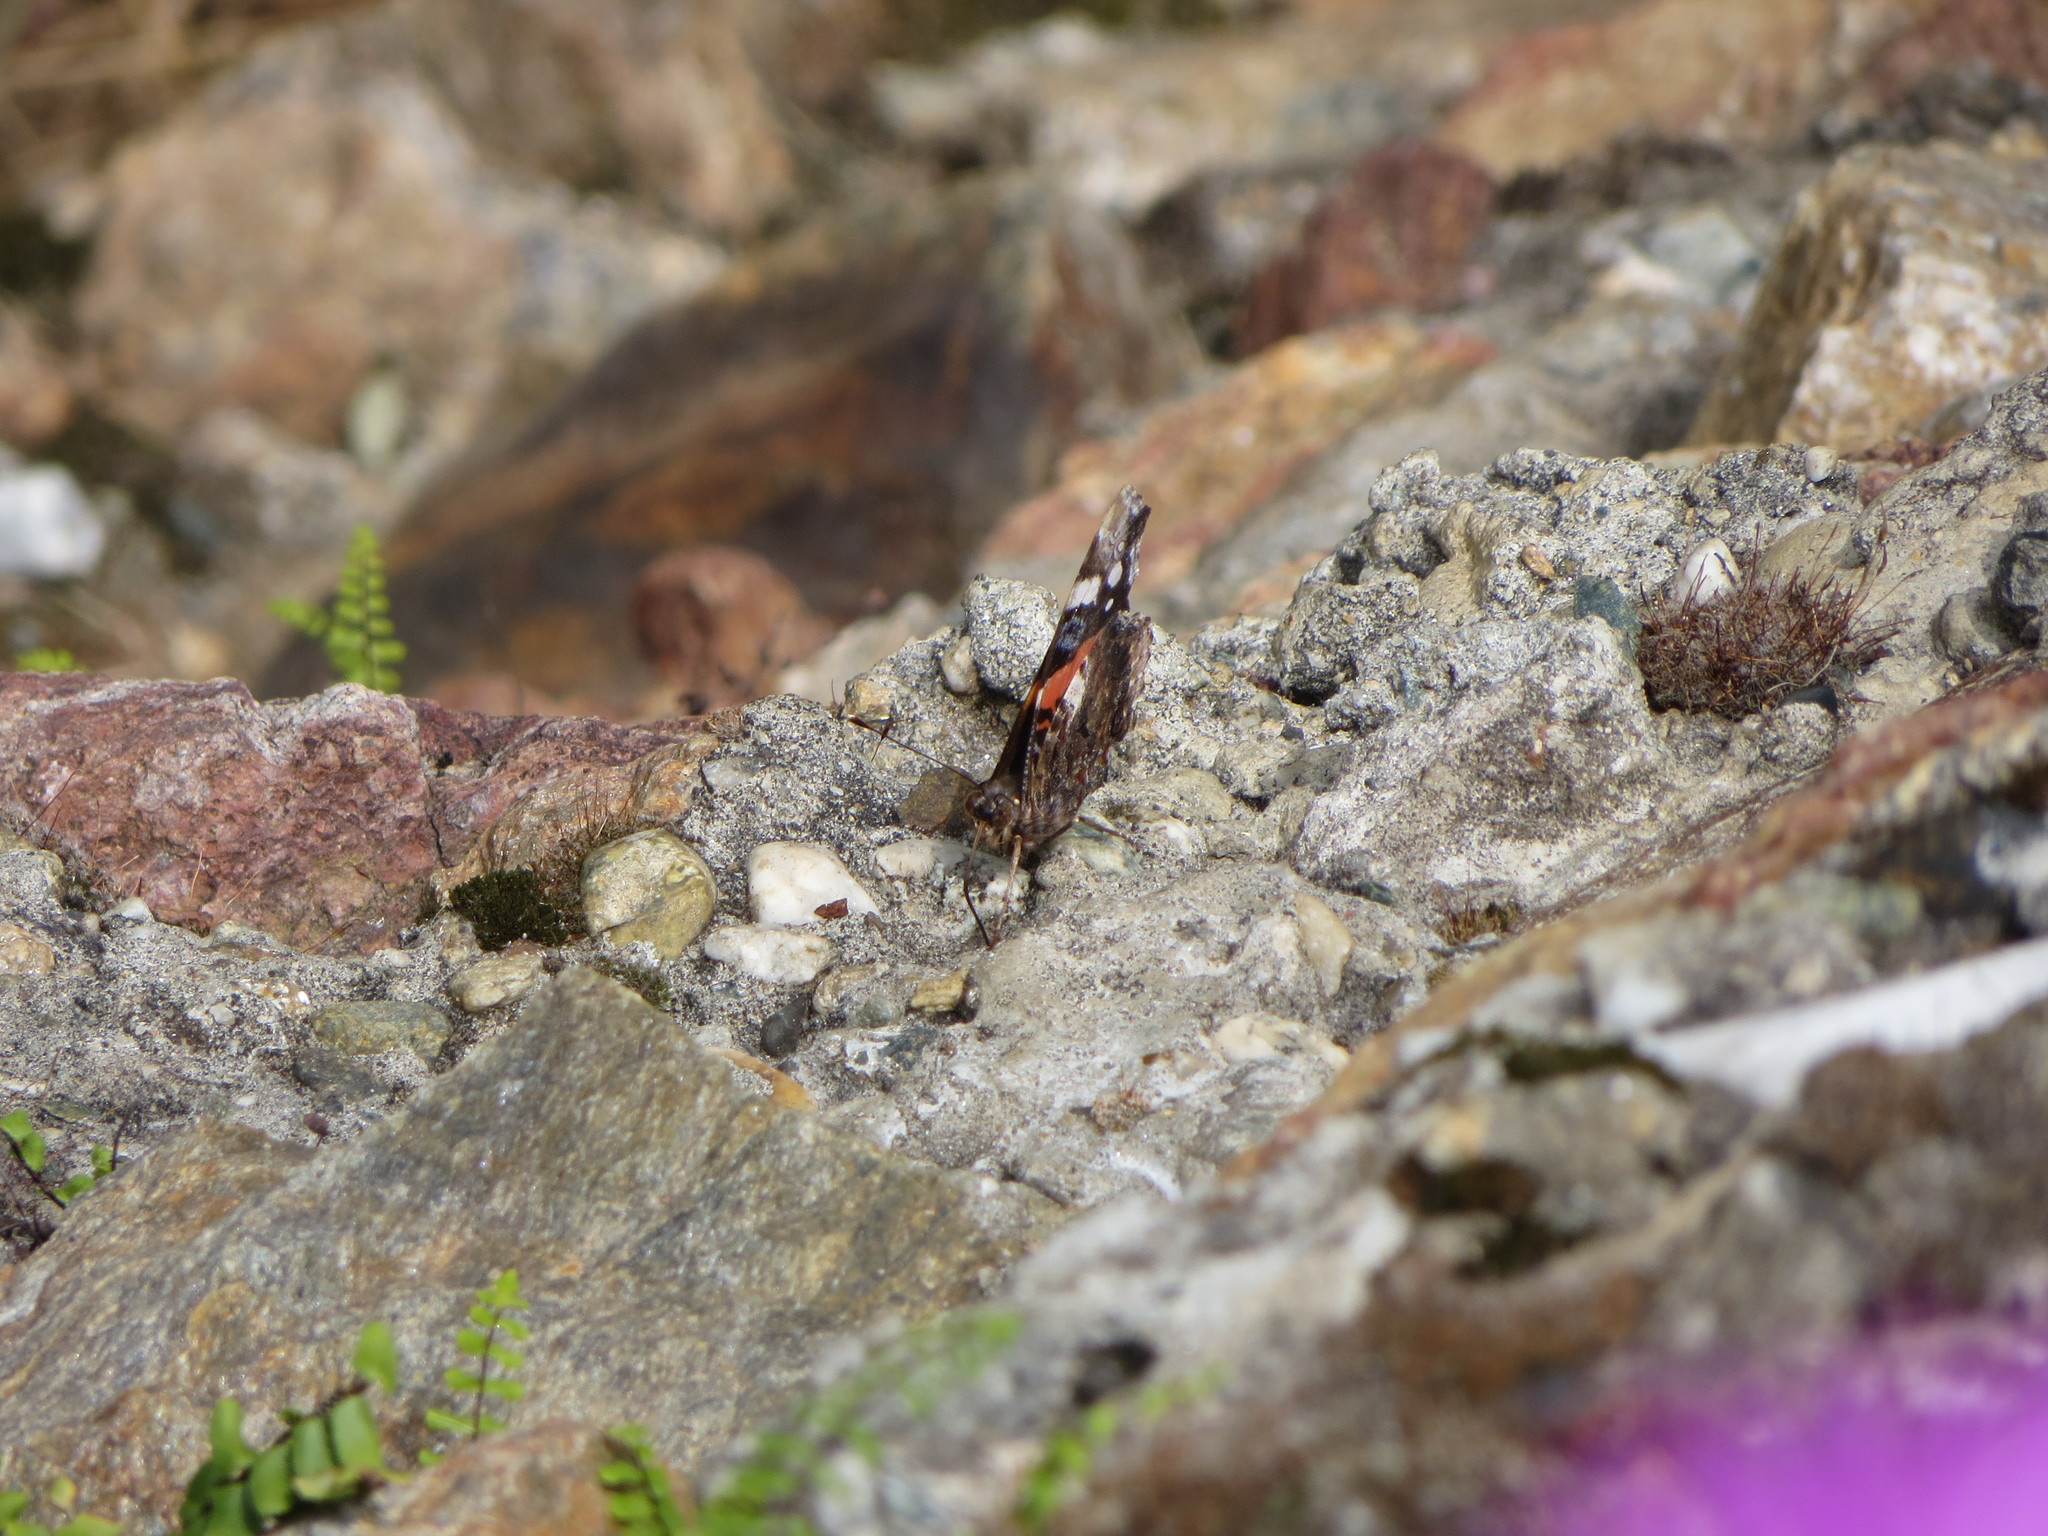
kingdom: Animalia
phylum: Arthropoda
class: Insecta
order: Lepidoptera
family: Nymphalidae
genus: Vanessa
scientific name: Vanessa atalanta
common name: Red admiral
